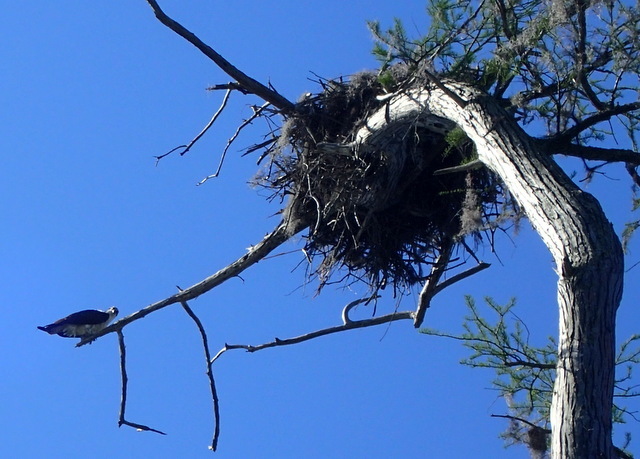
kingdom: Animalia
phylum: Chordata
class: Aves
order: Accipitriformes
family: Pandionidae
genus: Pandion
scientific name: Pandion haliaetus
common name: Osprey
